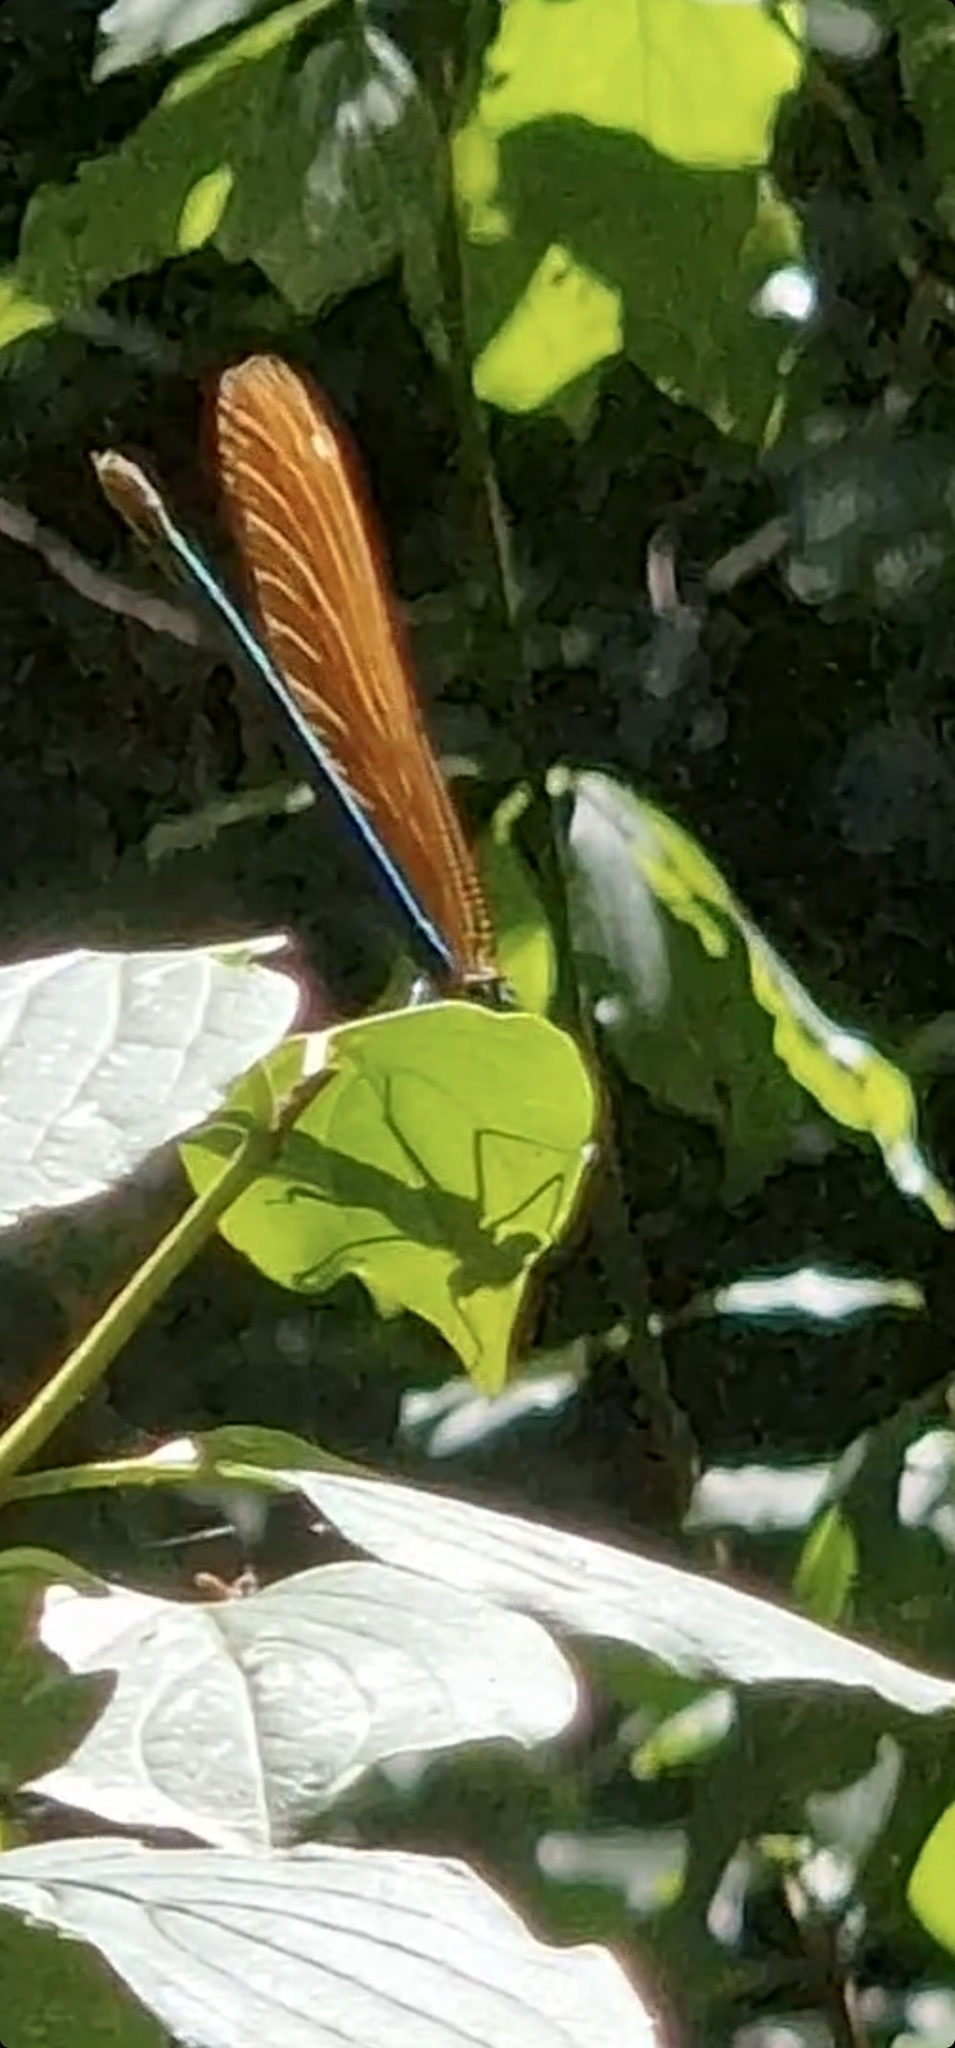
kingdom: Animalia
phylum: Arthropoda
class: Insecta
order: Odonata
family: Calopterygidae
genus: Calopteryx
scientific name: Calopteryx virgo
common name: Beautiful demoiselle
